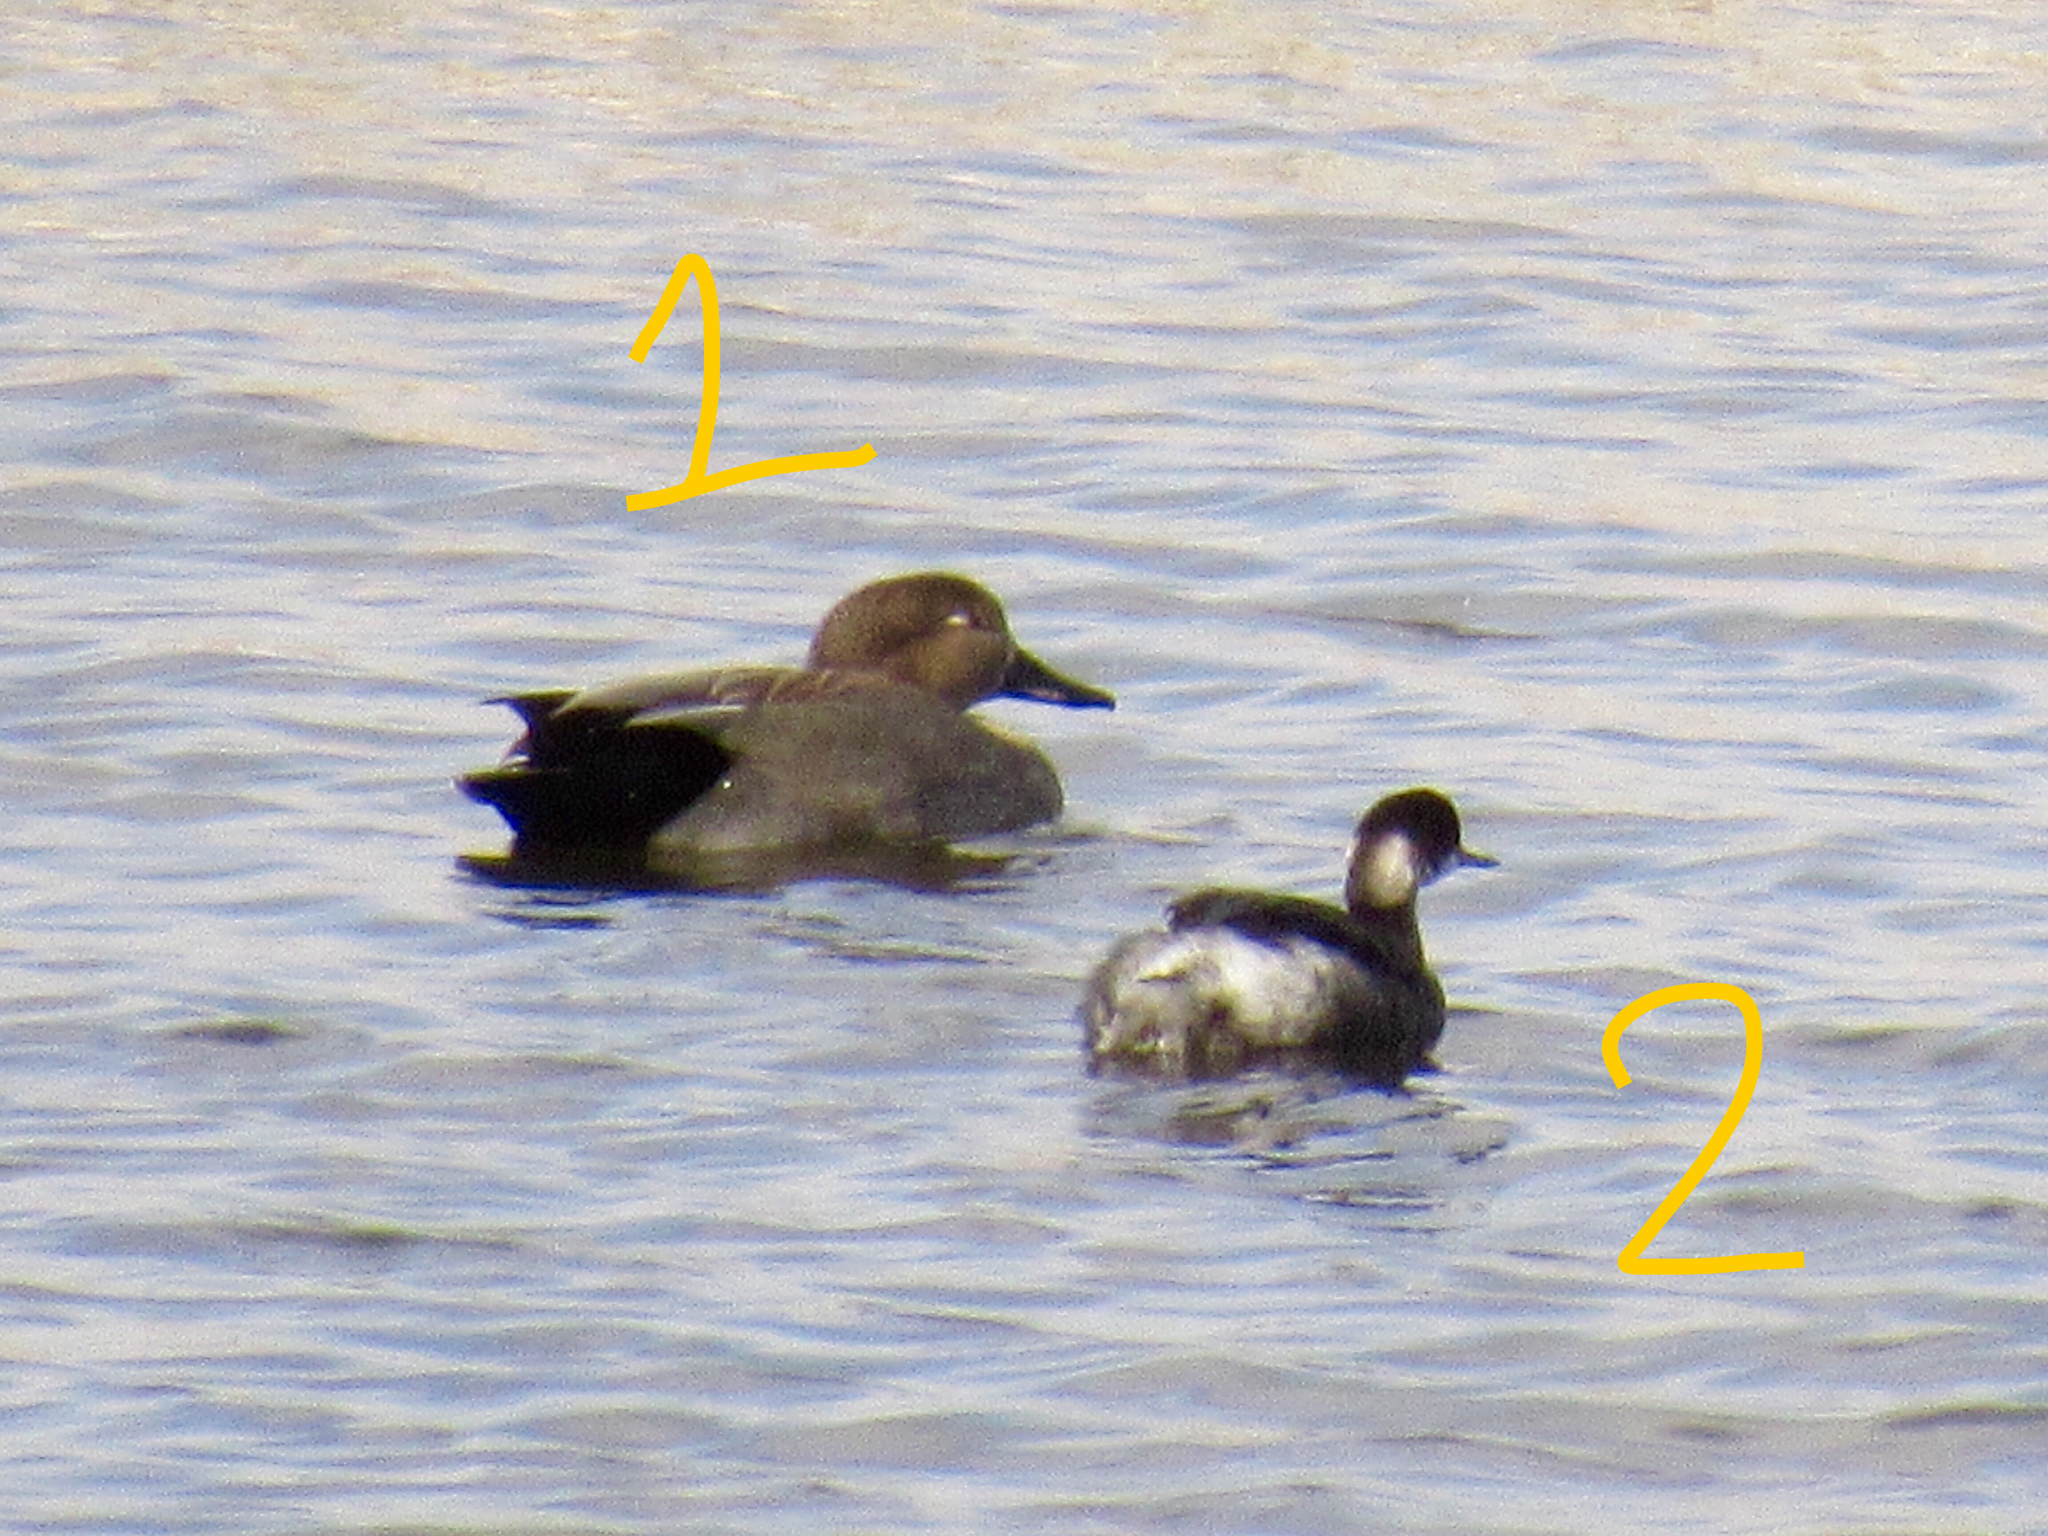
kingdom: Animalia
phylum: Chordata
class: Aves
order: Anseriformes
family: Anatidae
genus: Mareca
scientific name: Mareca strepera
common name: Gadwall
